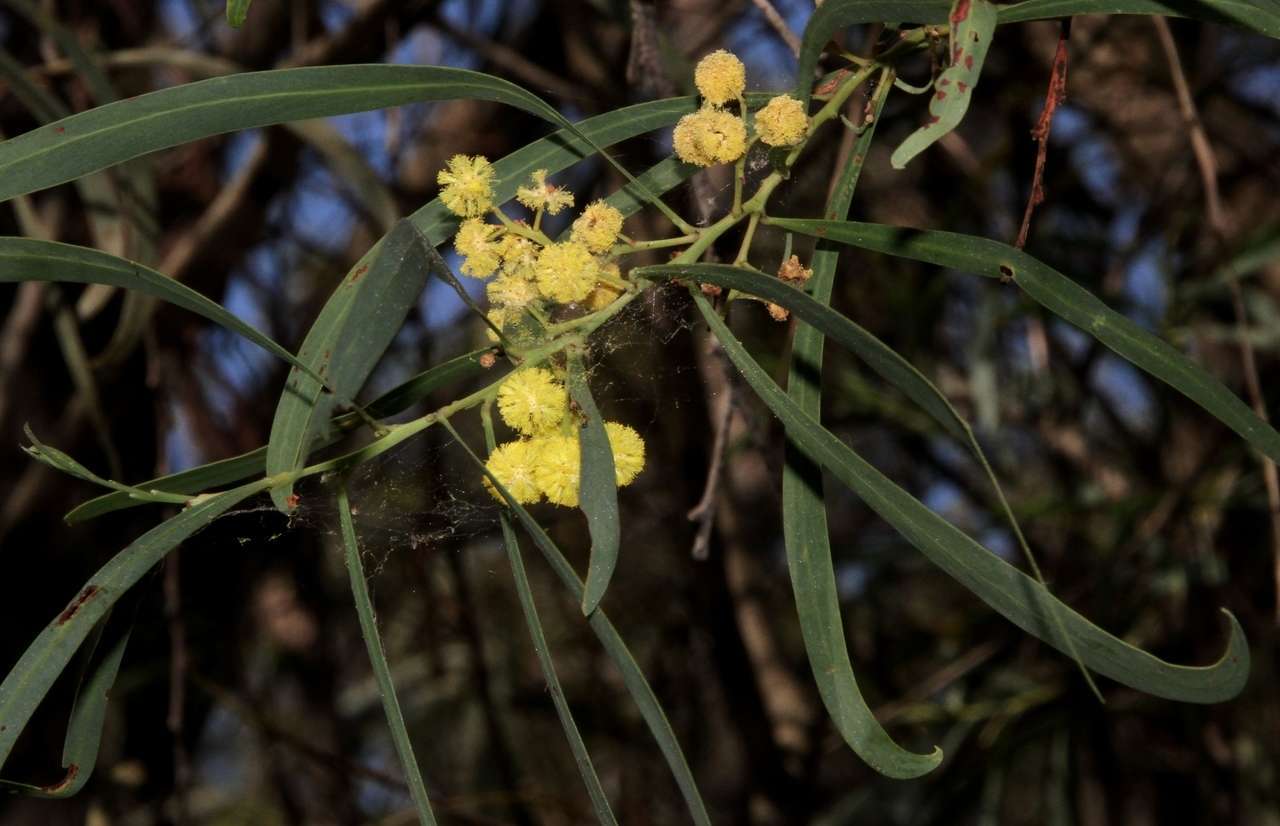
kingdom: Plantae
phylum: Tracheophyta
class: Magnoliopsida
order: Fabales
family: Fabaceae
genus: Acacia
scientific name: Acacia provincialis
